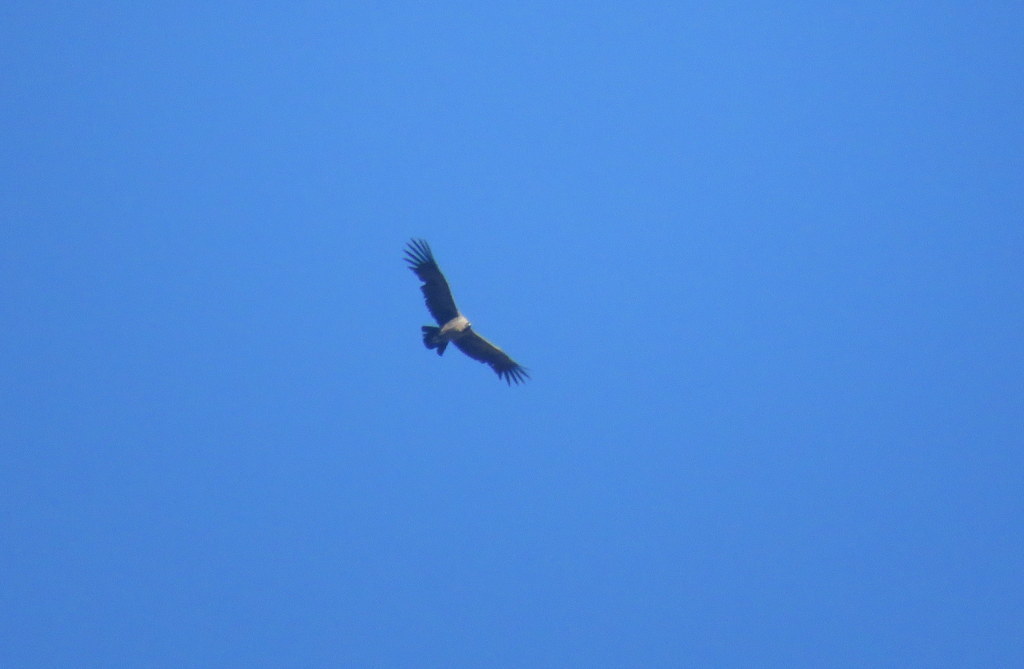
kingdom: Animalia
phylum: Chordata
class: Aves
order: Accipitriformes
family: Cathartidae
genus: Vultur
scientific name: Vultur gryphus
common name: Andean condor
